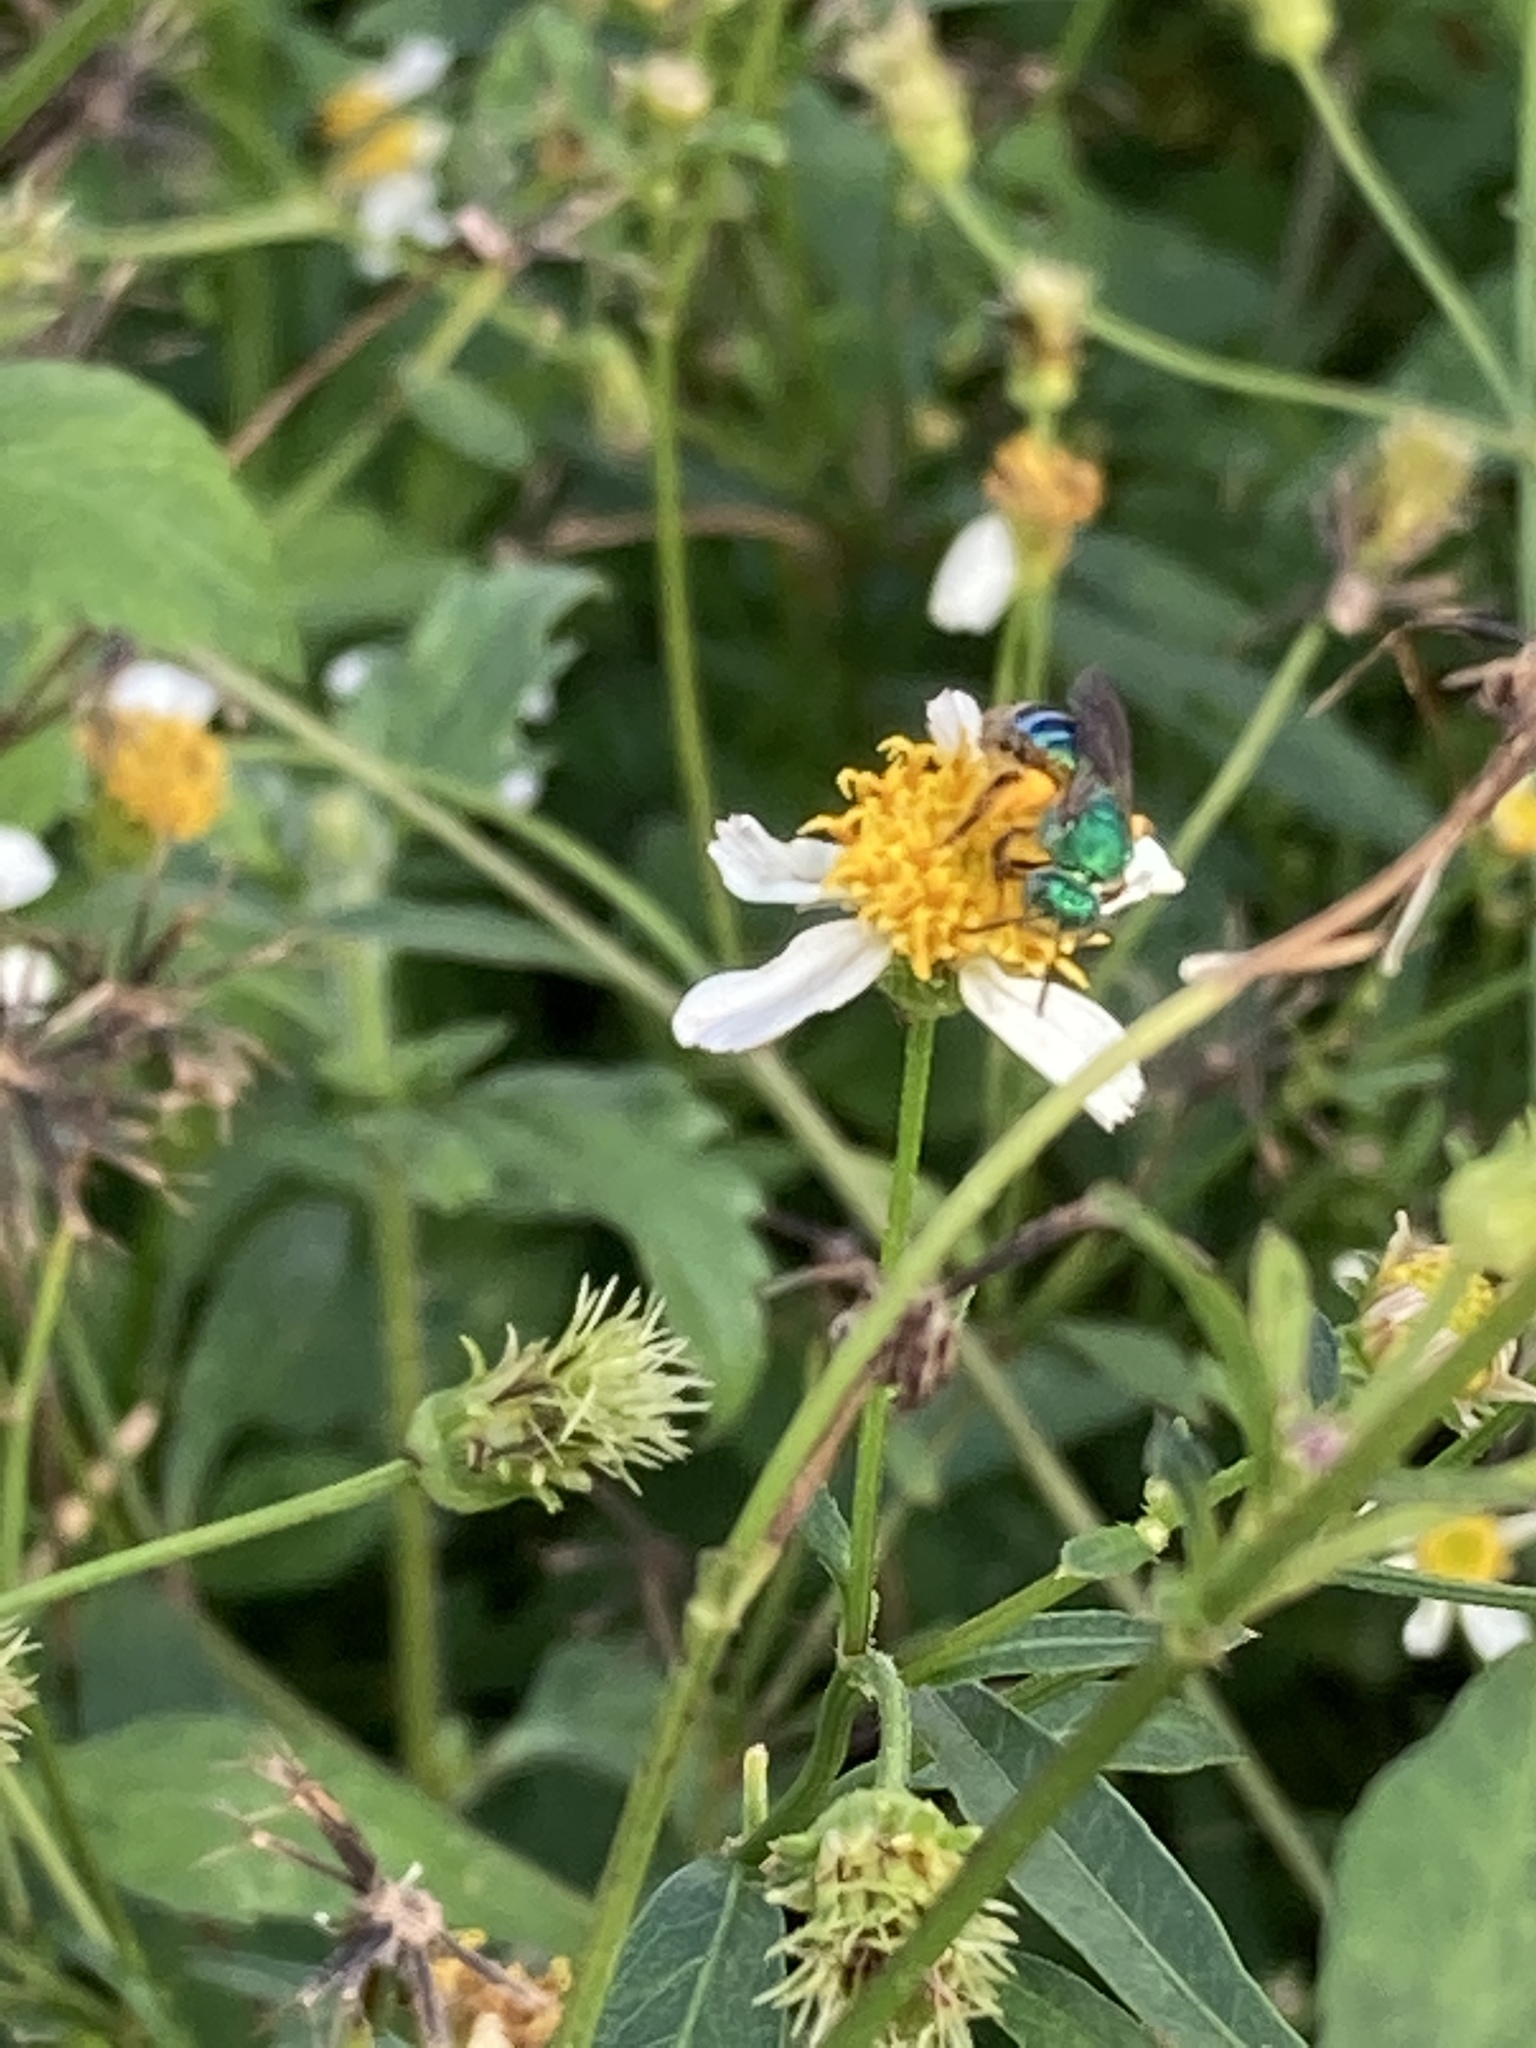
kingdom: Animalia
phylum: Arthropoda
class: Insecta
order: Hymenoptera
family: Halictidae
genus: Agapostemon
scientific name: Agapostemon splendens
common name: Brown-winged striped sweat bee
